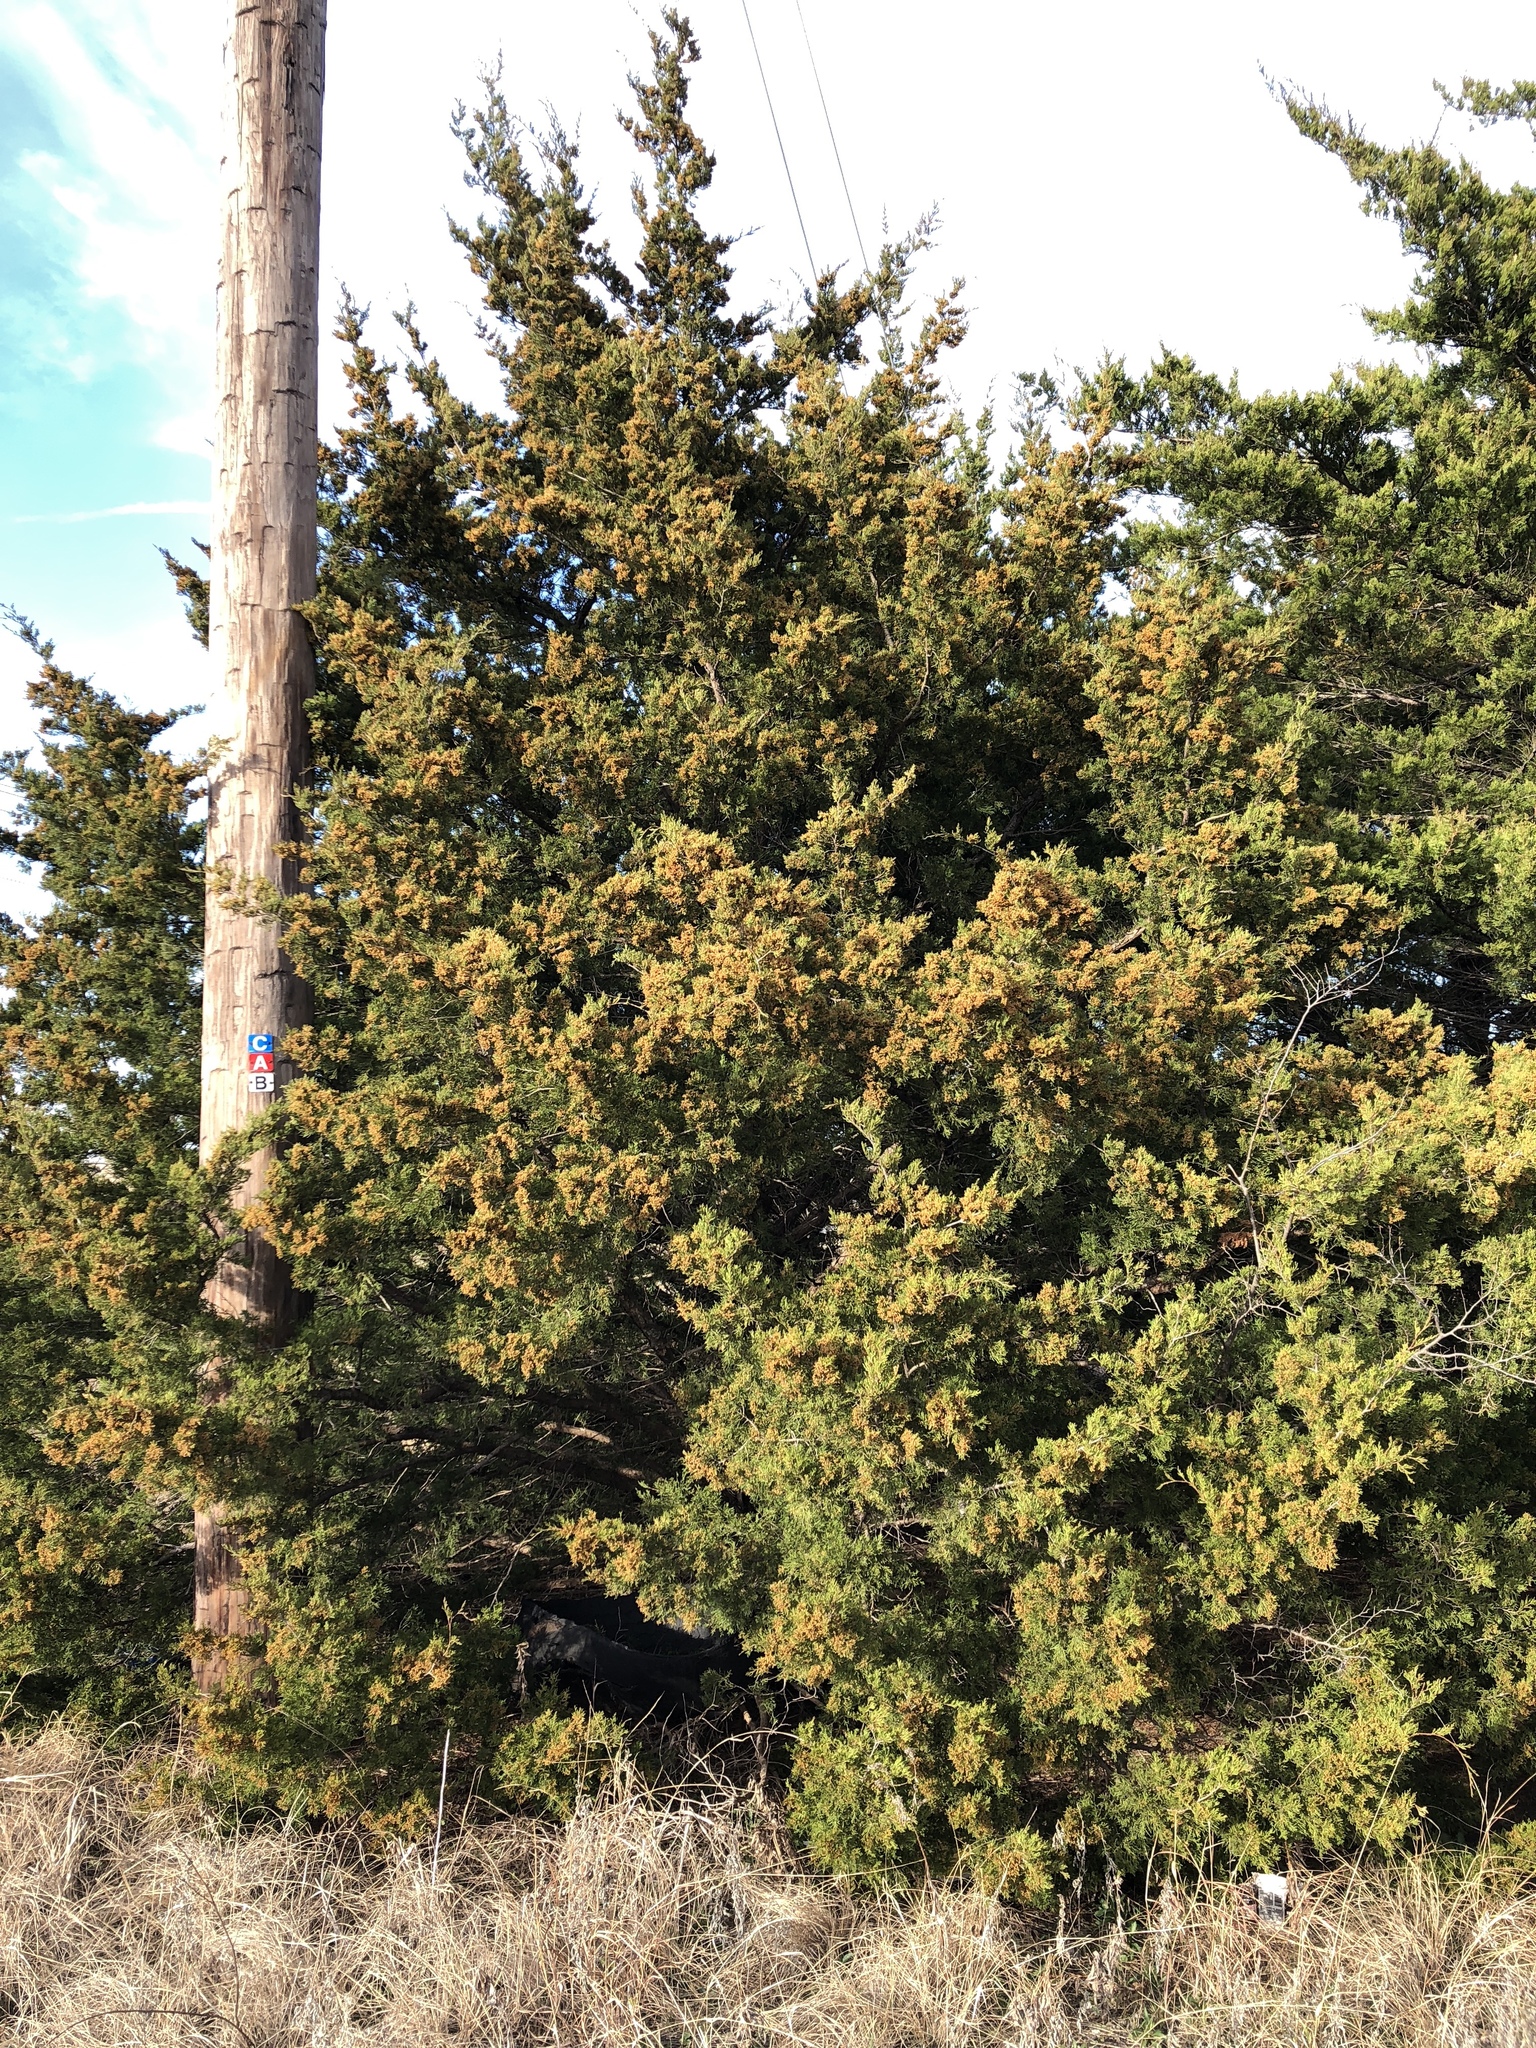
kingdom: Plantae
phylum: Tracheophyta
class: Pinopsida
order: Pinales
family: Cupressaceae
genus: Juniperus
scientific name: Juniperus virginiana
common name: Red juniper
